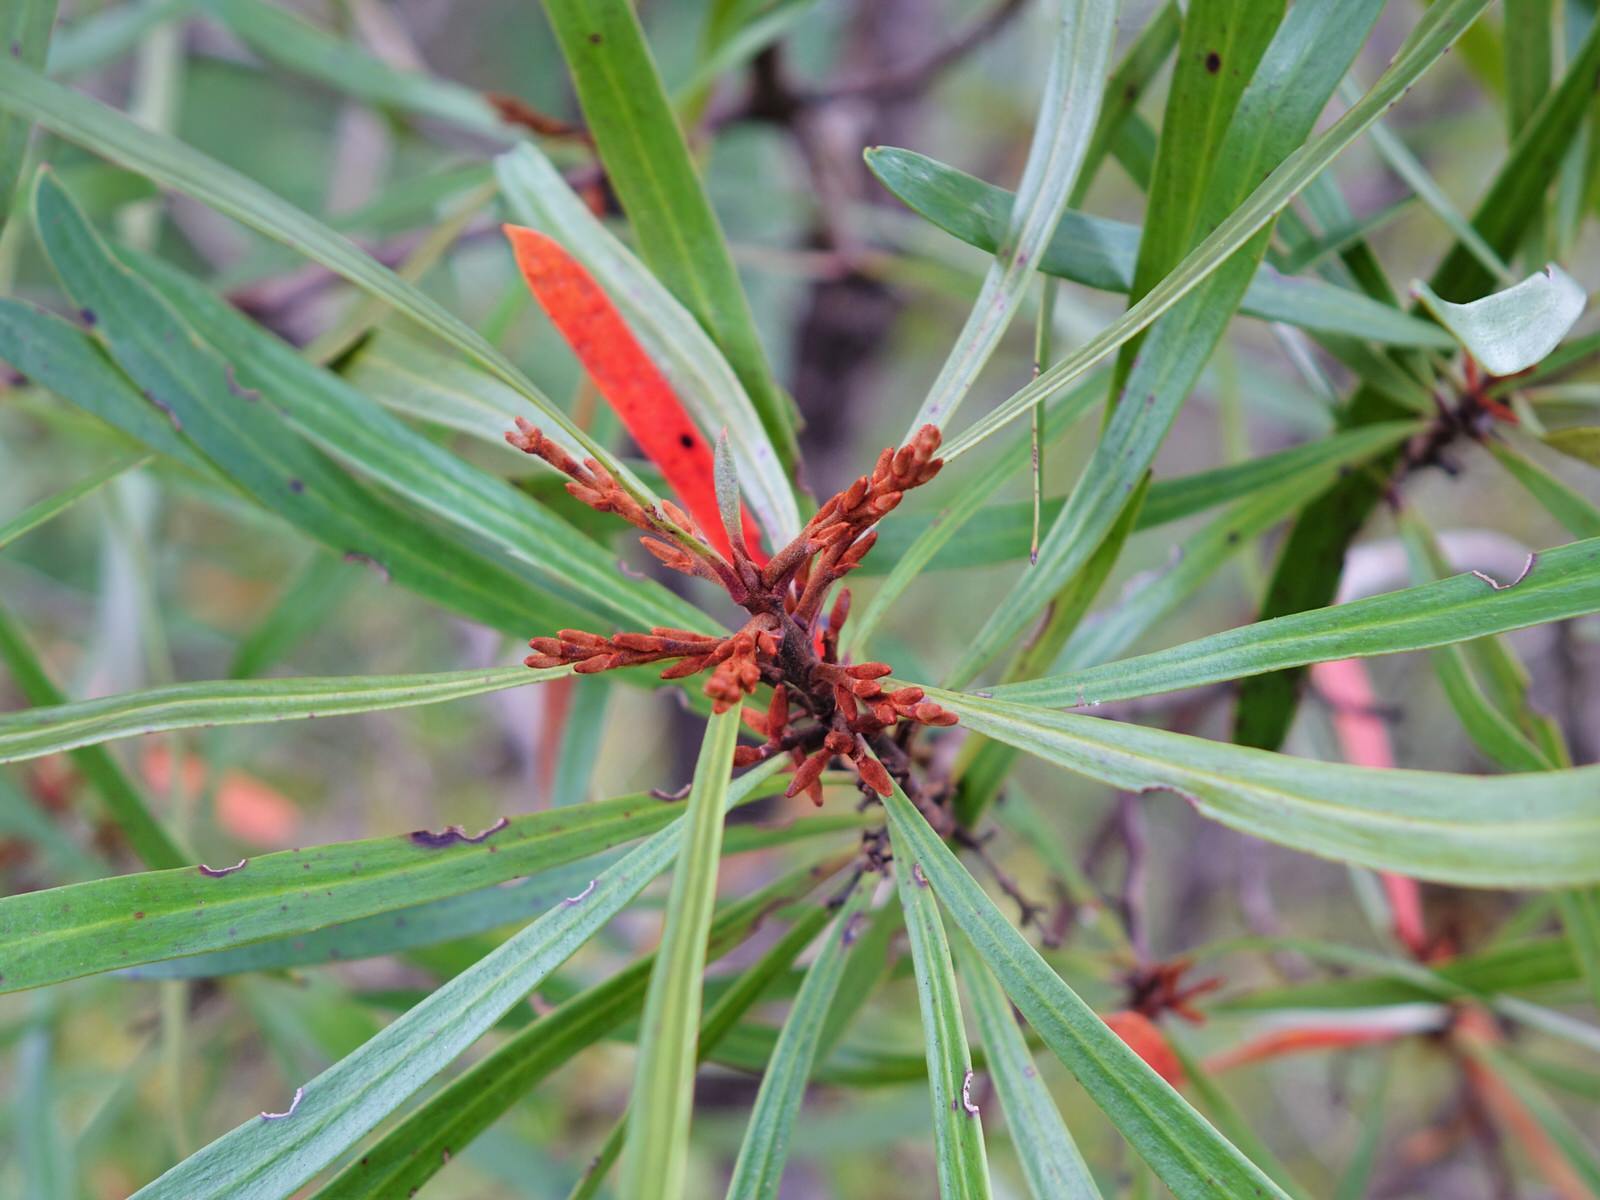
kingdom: Plantae
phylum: Tracheophyta
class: Magnoliopsida
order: Proteales
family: Proteaceae
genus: Toronia
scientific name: Toronia toru
